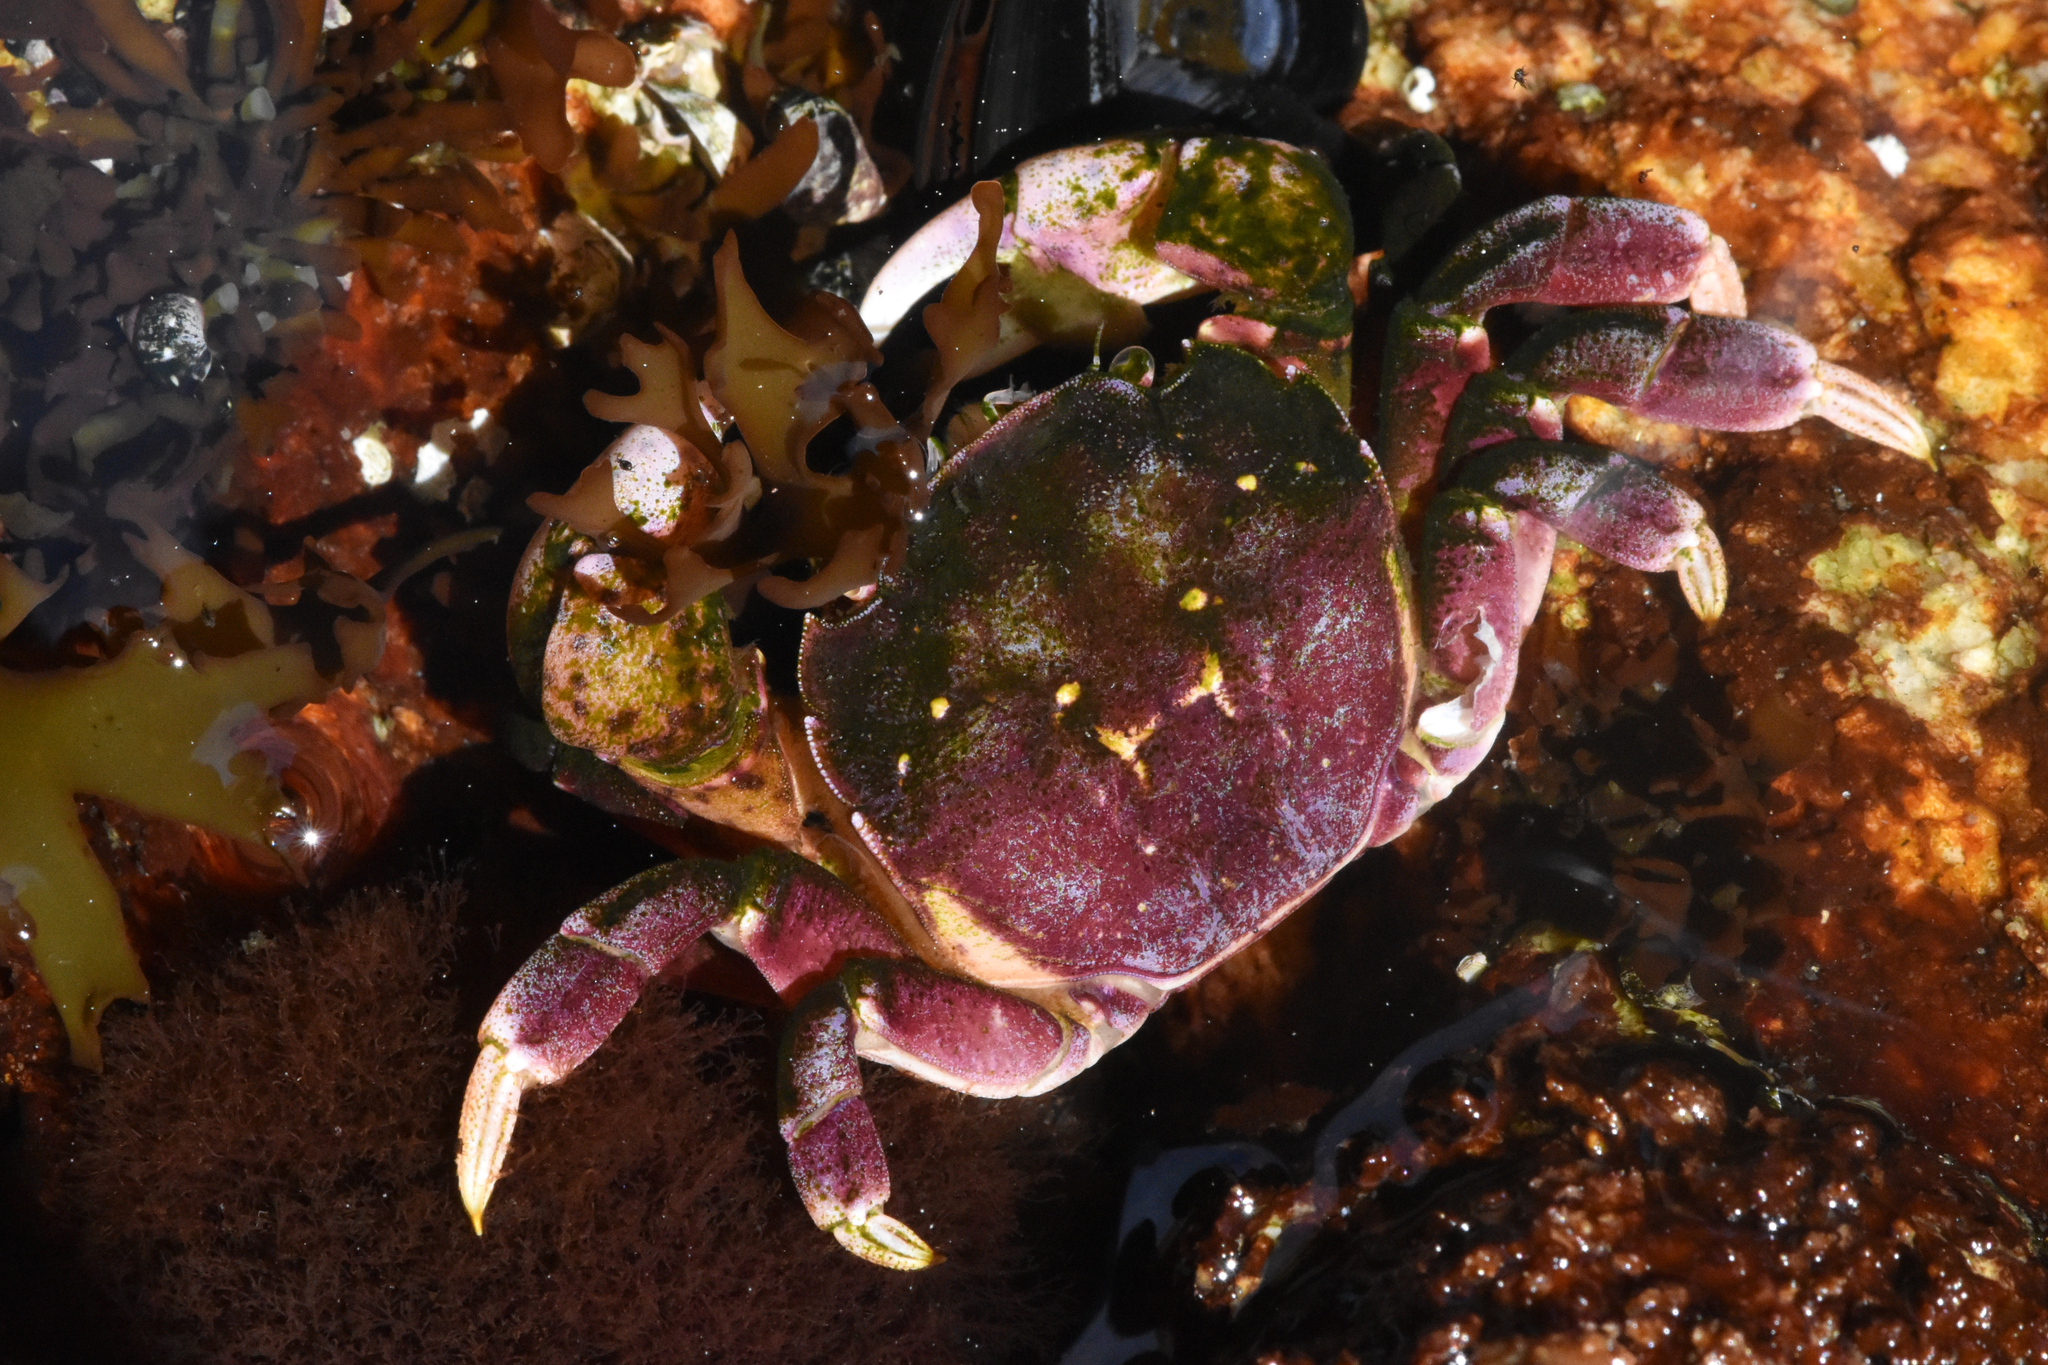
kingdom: Animalia
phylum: Arthropoda
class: Malacostraca
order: Decapoda
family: Varunidae
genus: Hemigrapsus
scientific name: Hemigrapsus nudus
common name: Purple shore crab
